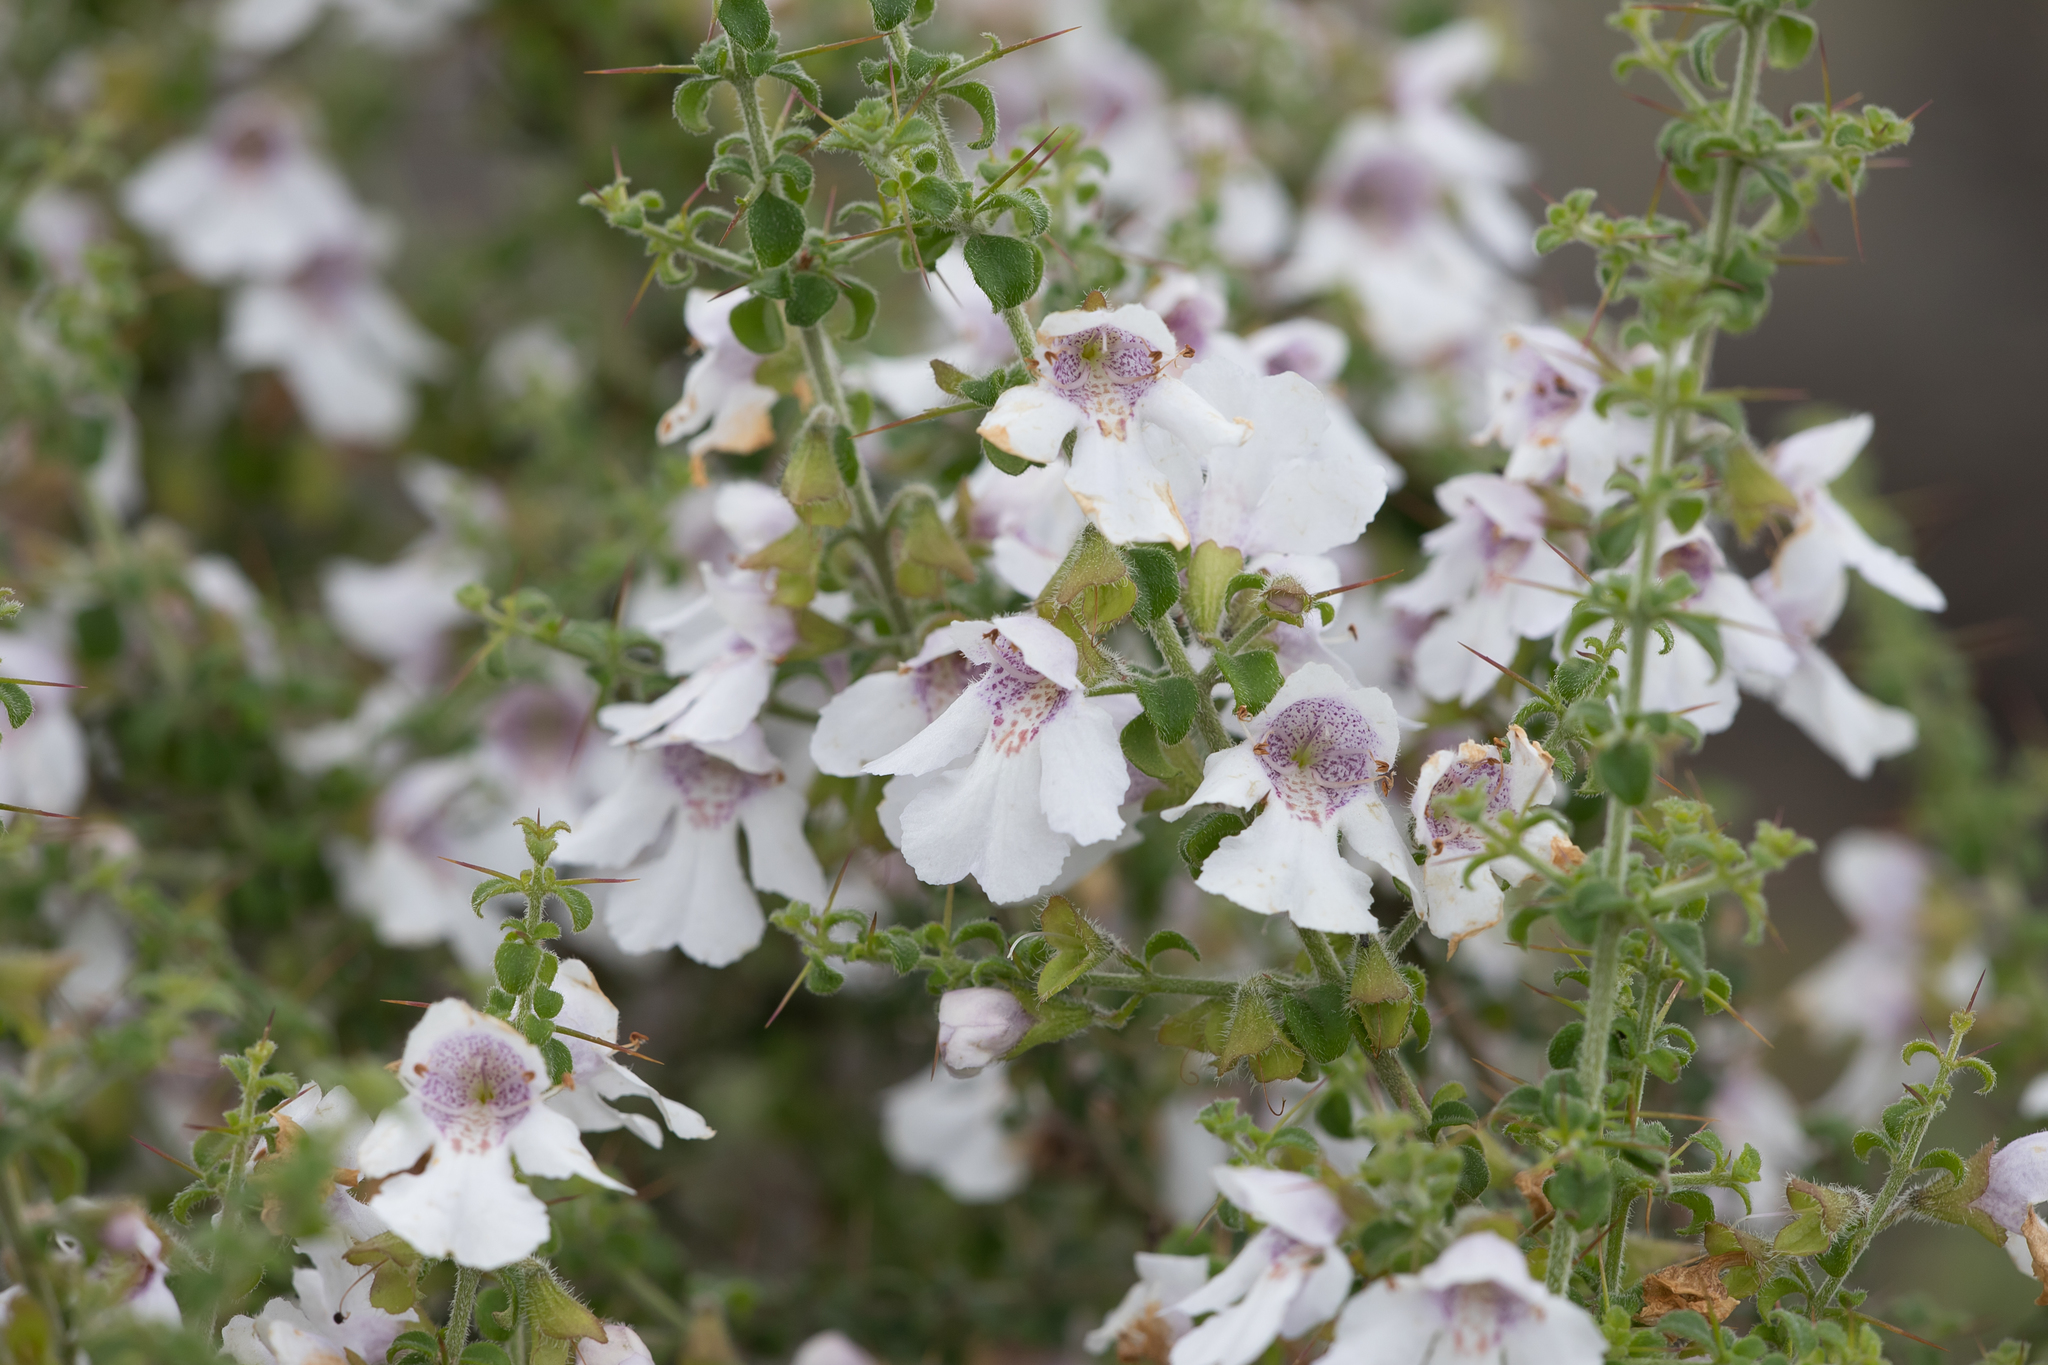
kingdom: Plantae
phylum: Tracheophyta
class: Magnoliopsida
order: Lamiales
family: Lamiaceae
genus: Prostanthera
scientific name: Prostanthera arapilensis
